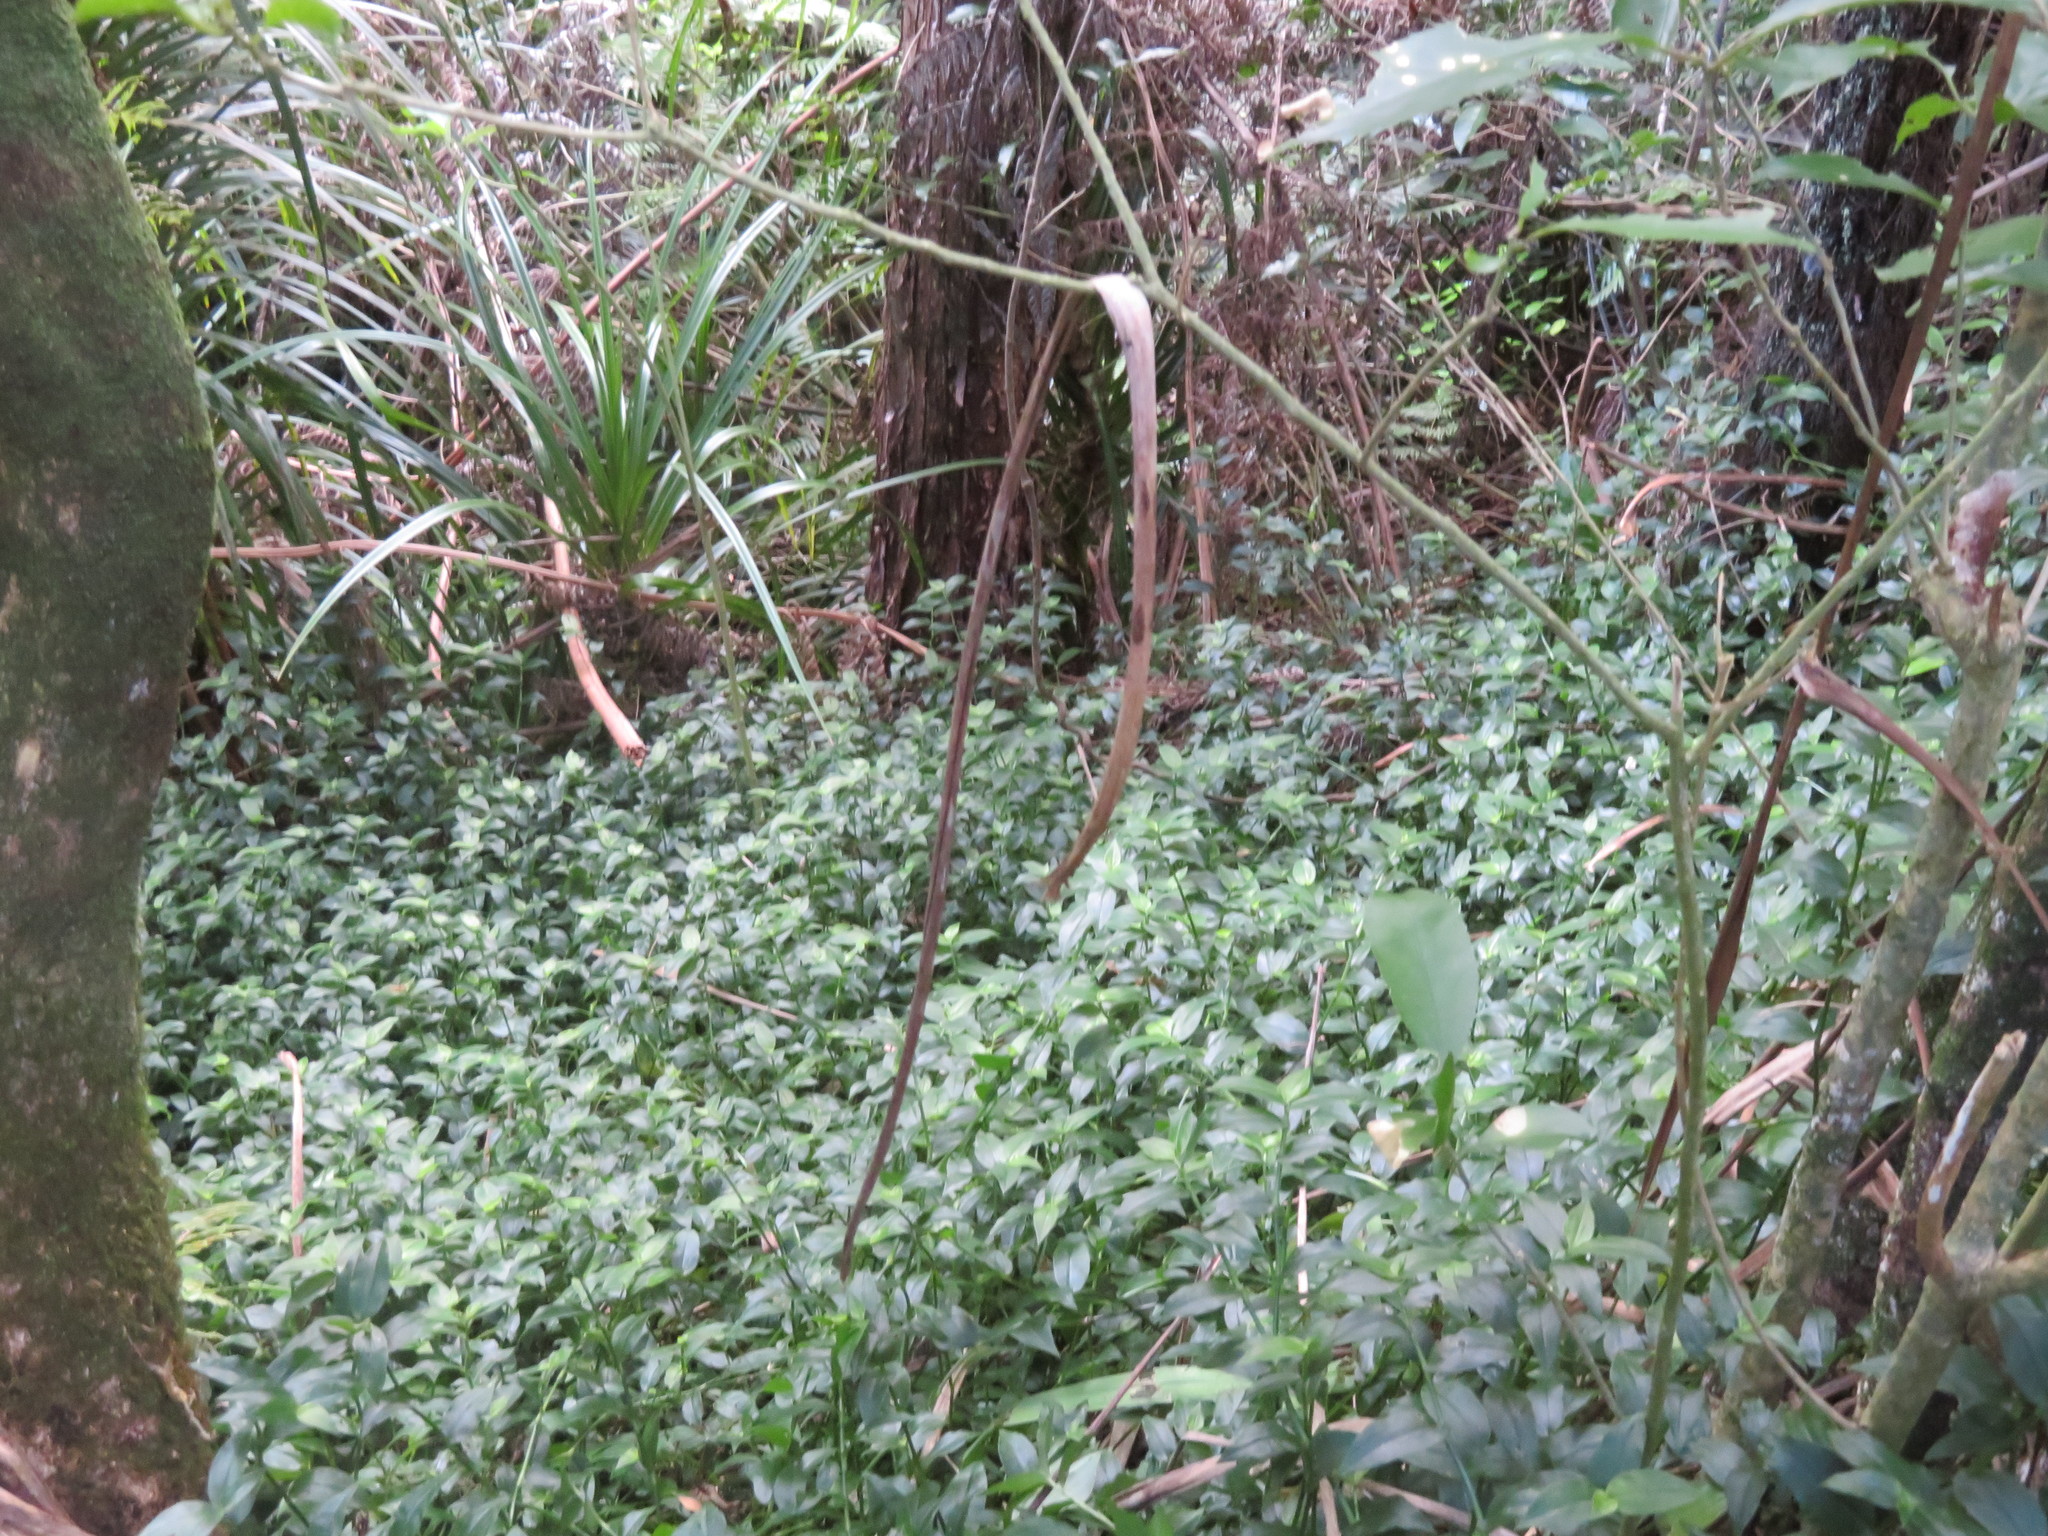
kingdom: Plantae
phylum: Tracheophyta
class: Liliopsida
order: Commelinales
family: Commelinaceae
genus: Tradescantia
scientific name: Tradescantia fluminensis
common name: Wandering-jew
